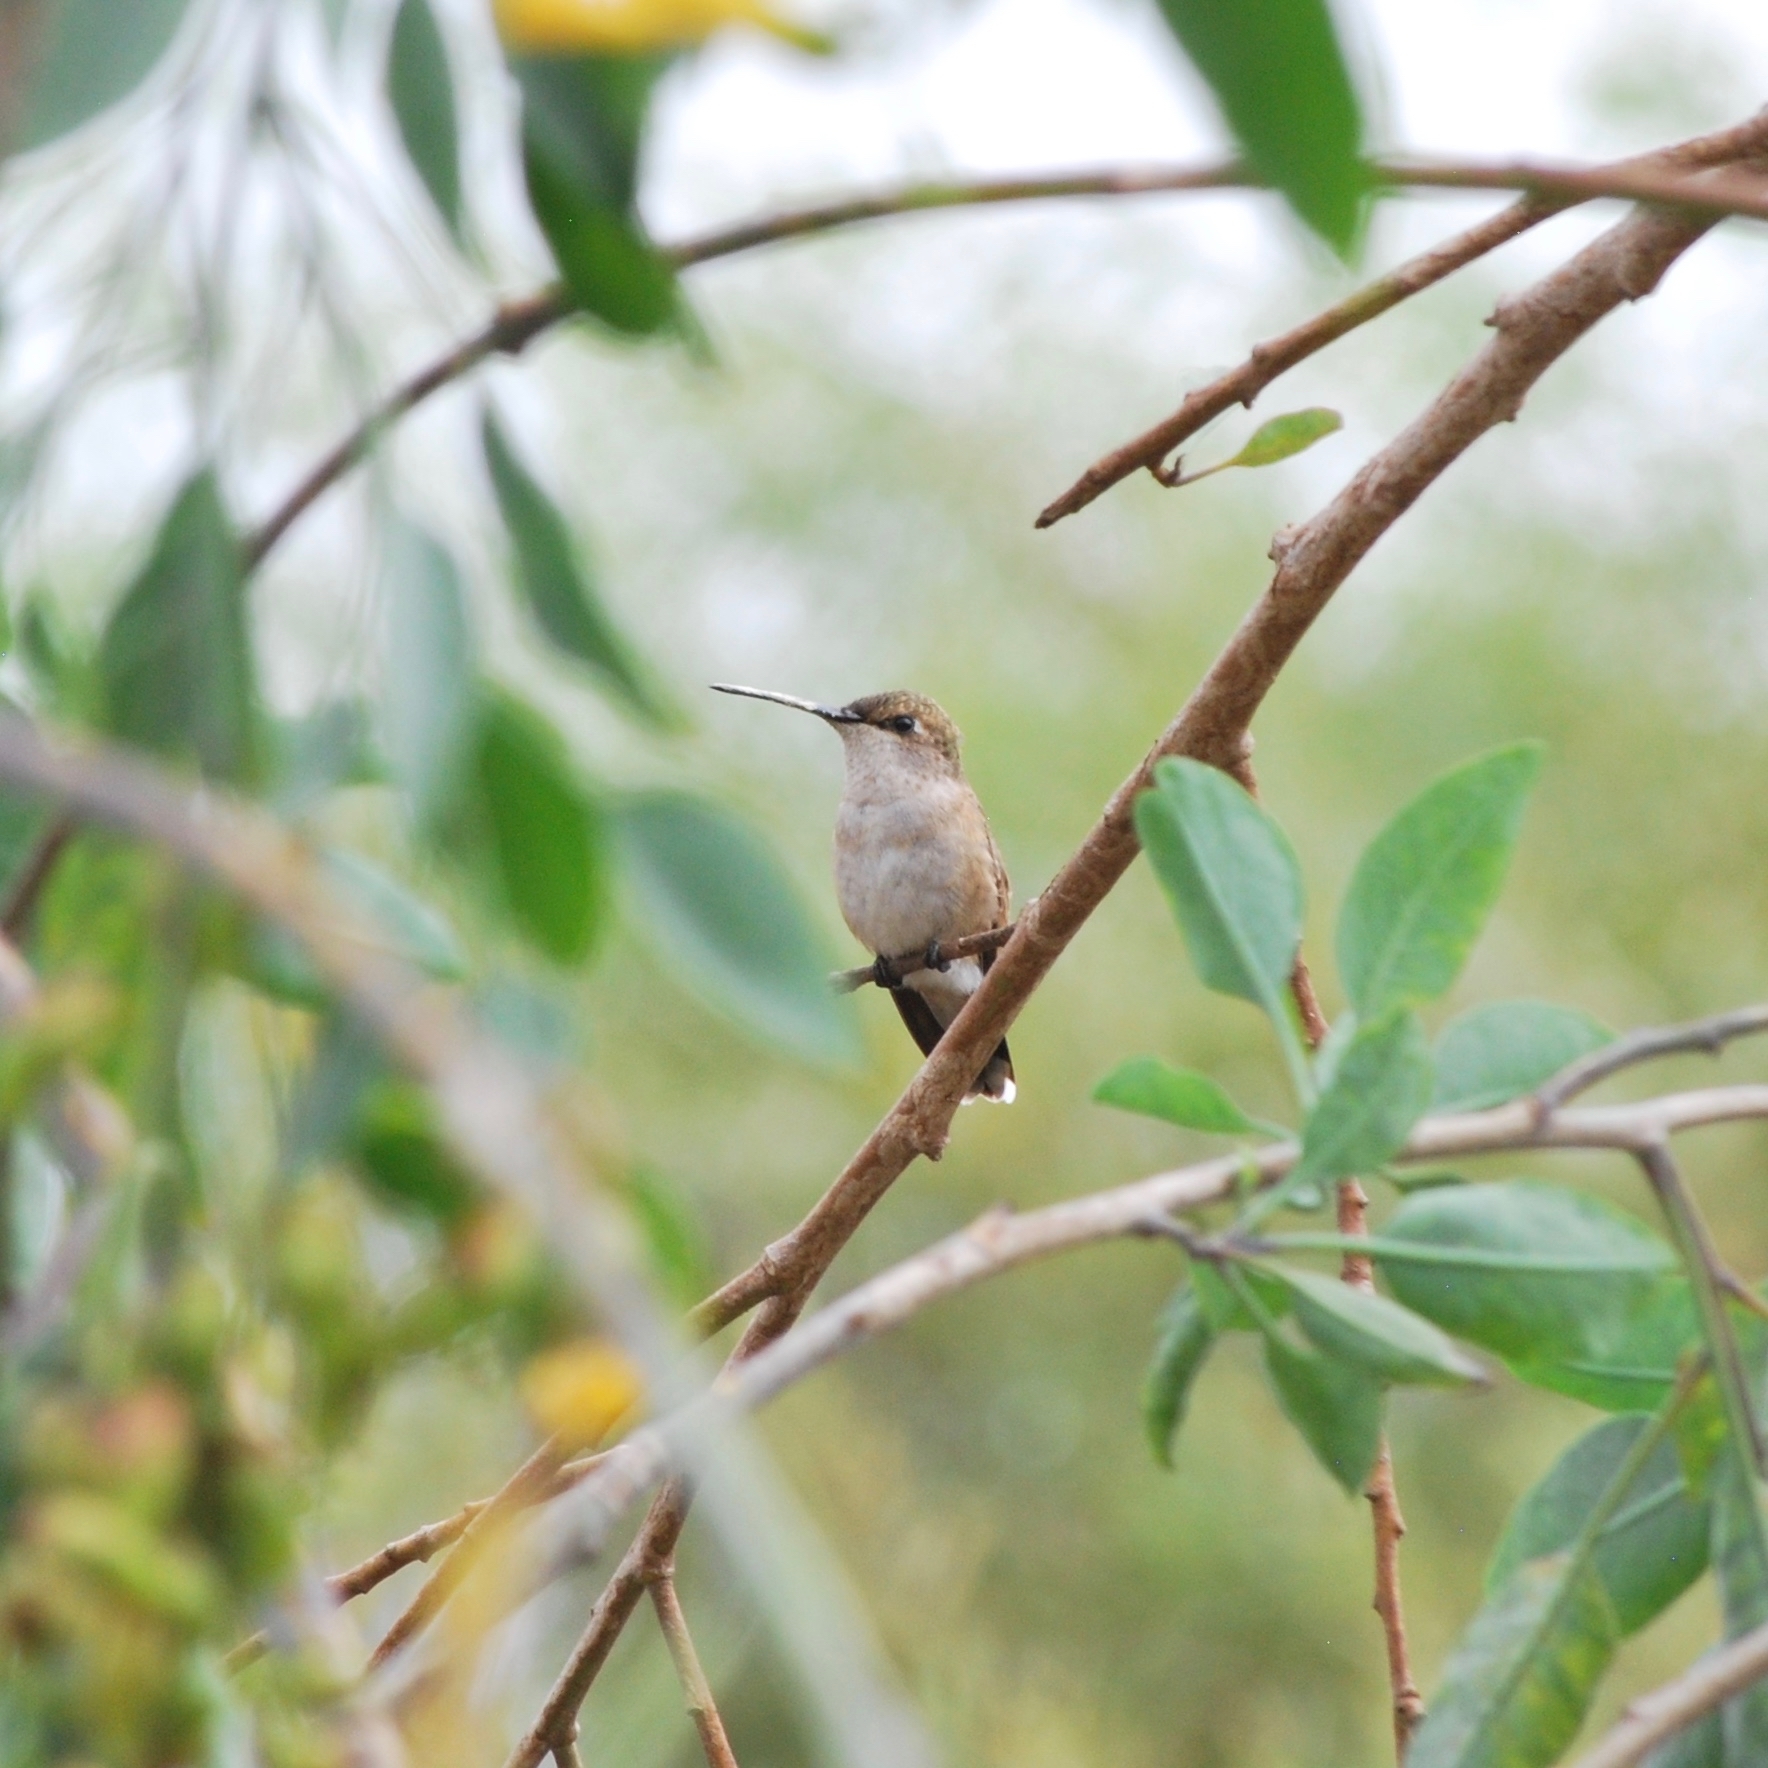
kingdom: Animalia
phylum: Chordata
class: Aves
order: Apodiformes
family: Trochilidae
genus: Archilochus
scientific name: Archilochus alexandri
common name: Black-chinned hummingbird
